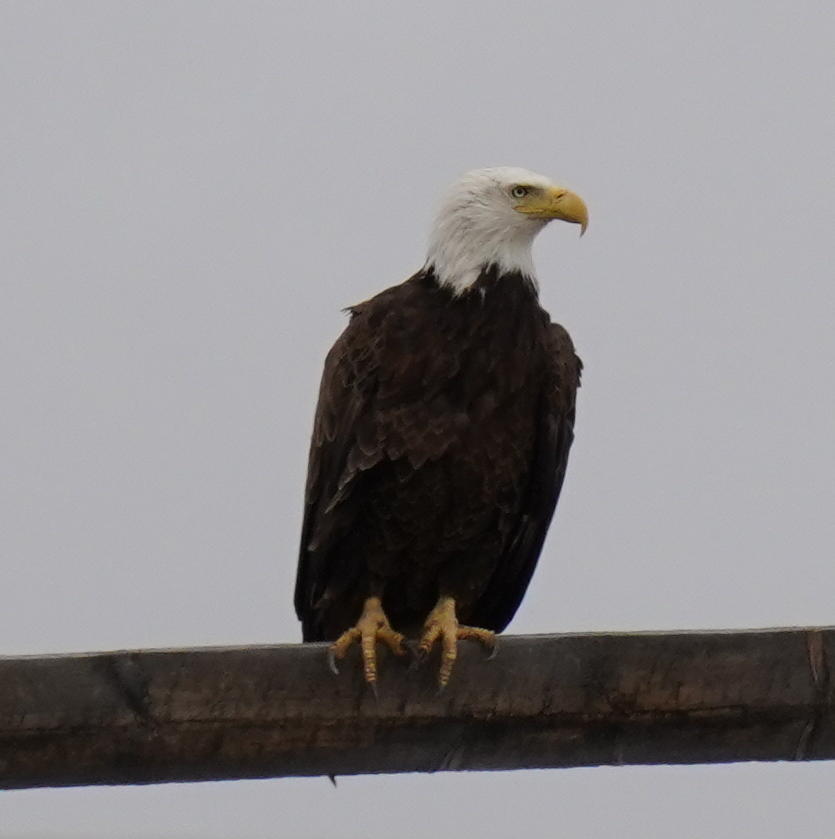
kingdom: Animalia
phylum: Chordata
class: Aves
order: Accipitriformes
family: Accipitridae
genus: Haliaeetus
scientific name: Haliaeetus leucocephalus
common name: Bald eagle
